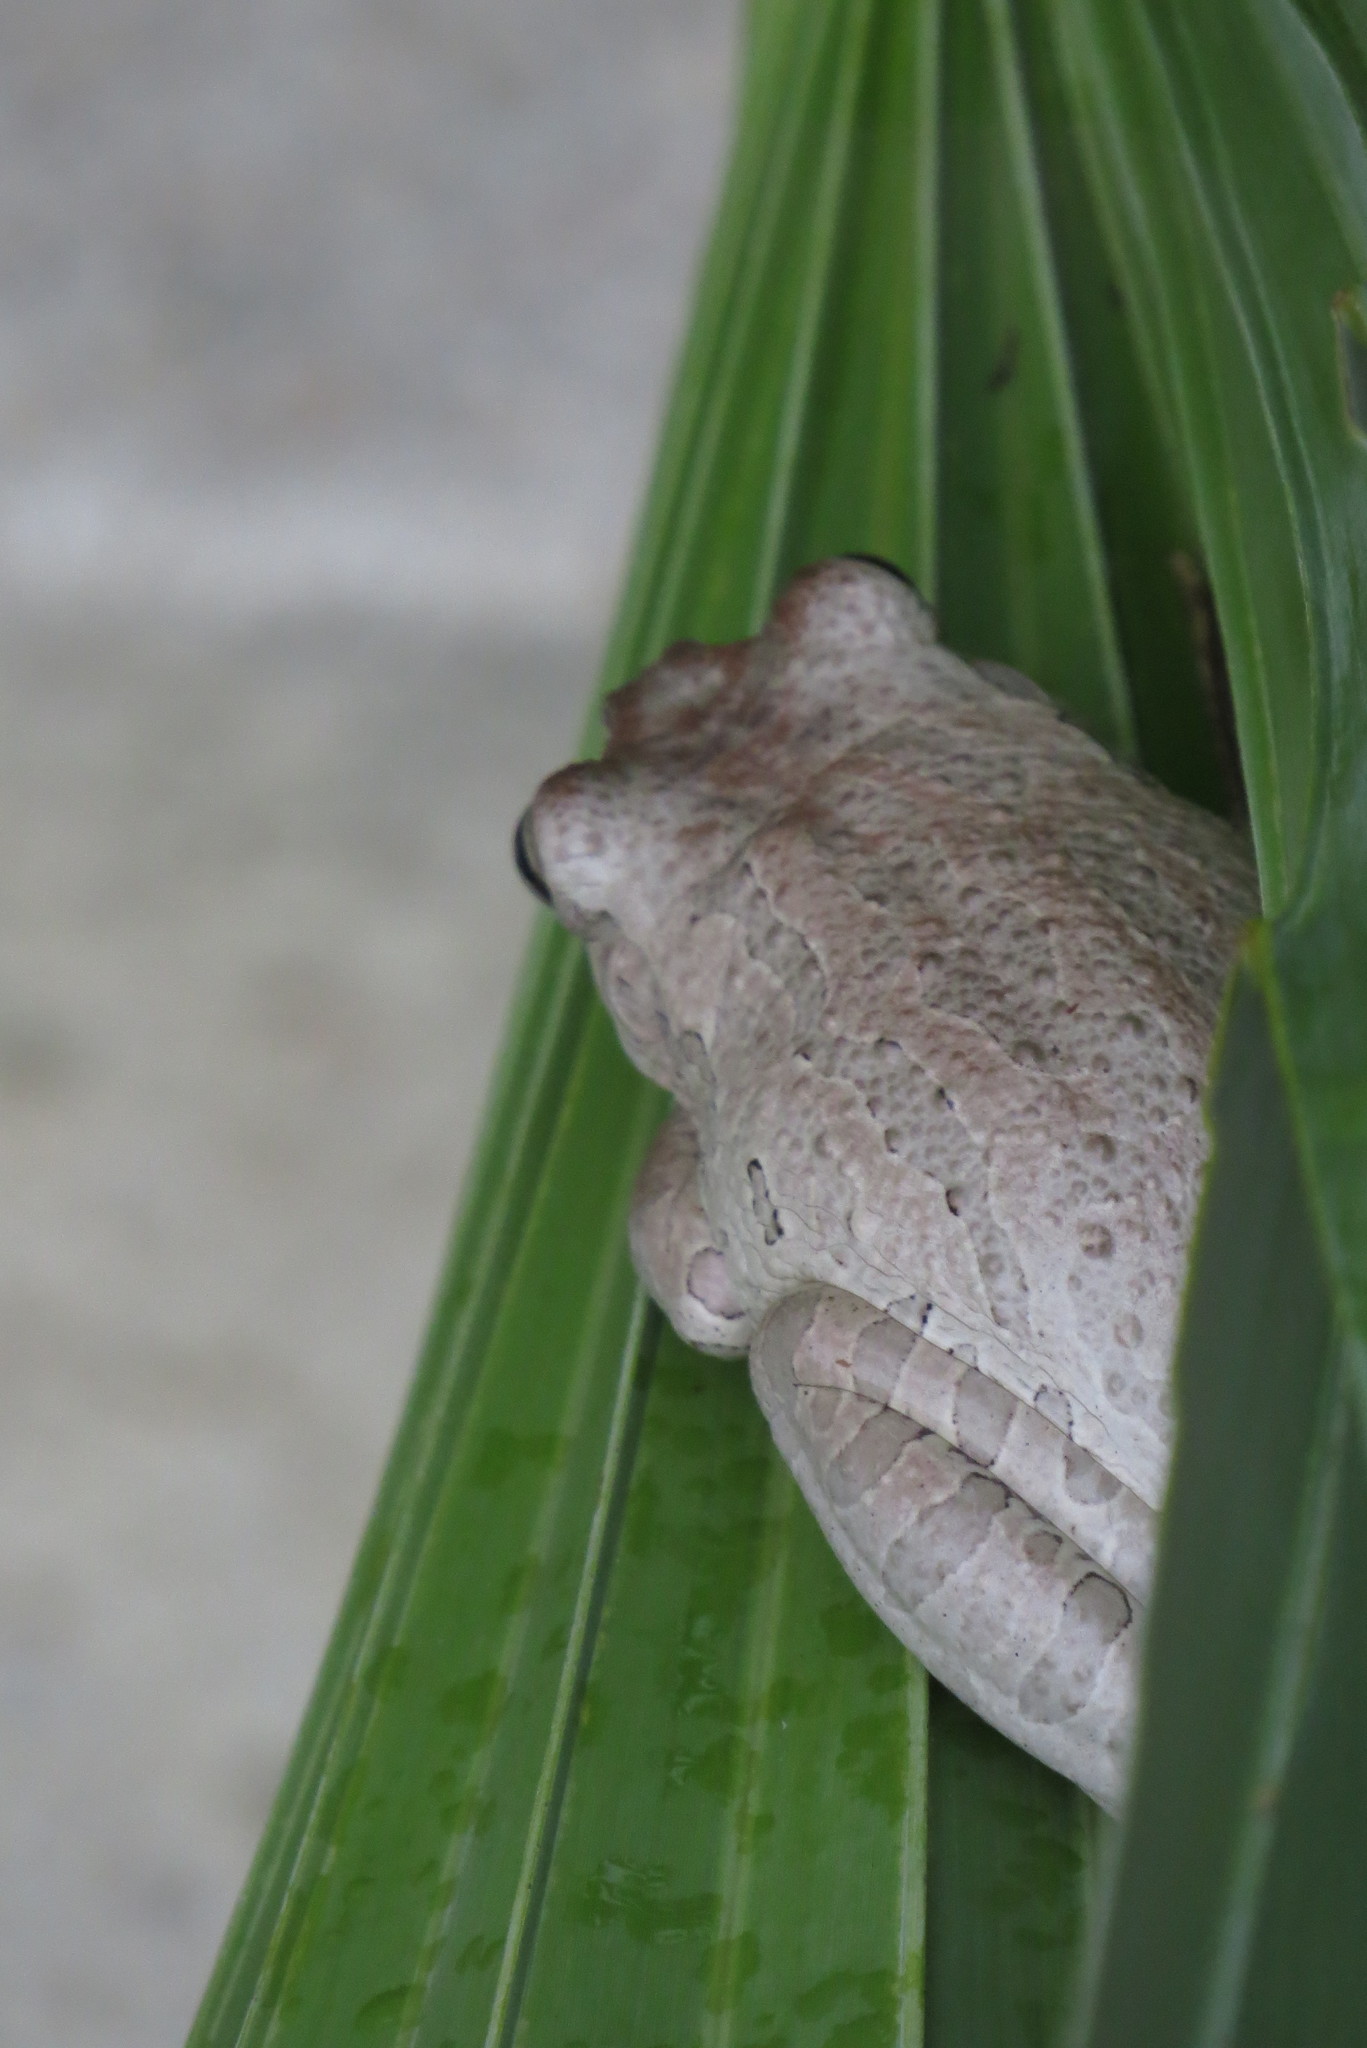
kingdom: Animalia
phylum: Chordata
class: Amphibia
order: Anura
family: Hylidae
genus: Osteopilus
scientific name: Osteopilus septentrionalis
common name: Cuban treefrog
